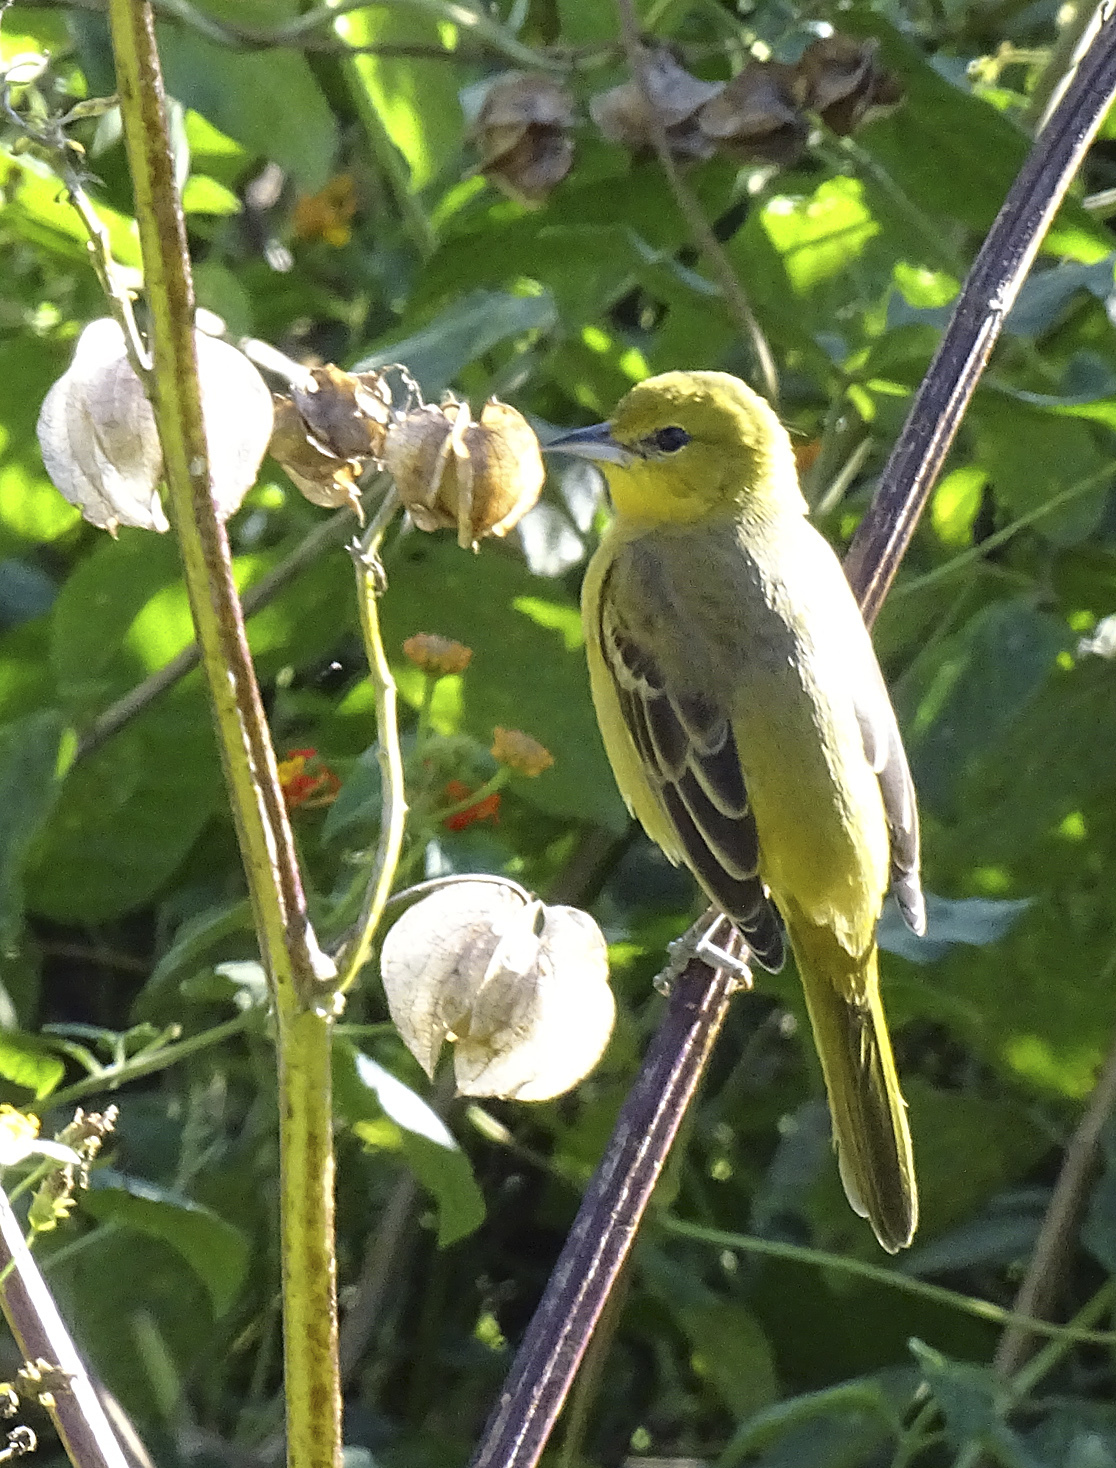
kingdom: Animalia
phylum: Chordata
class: Aves
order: Passeriformes
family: Icteridae
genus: Icterus
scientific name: Icterus spurius
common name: Orchard oriole
